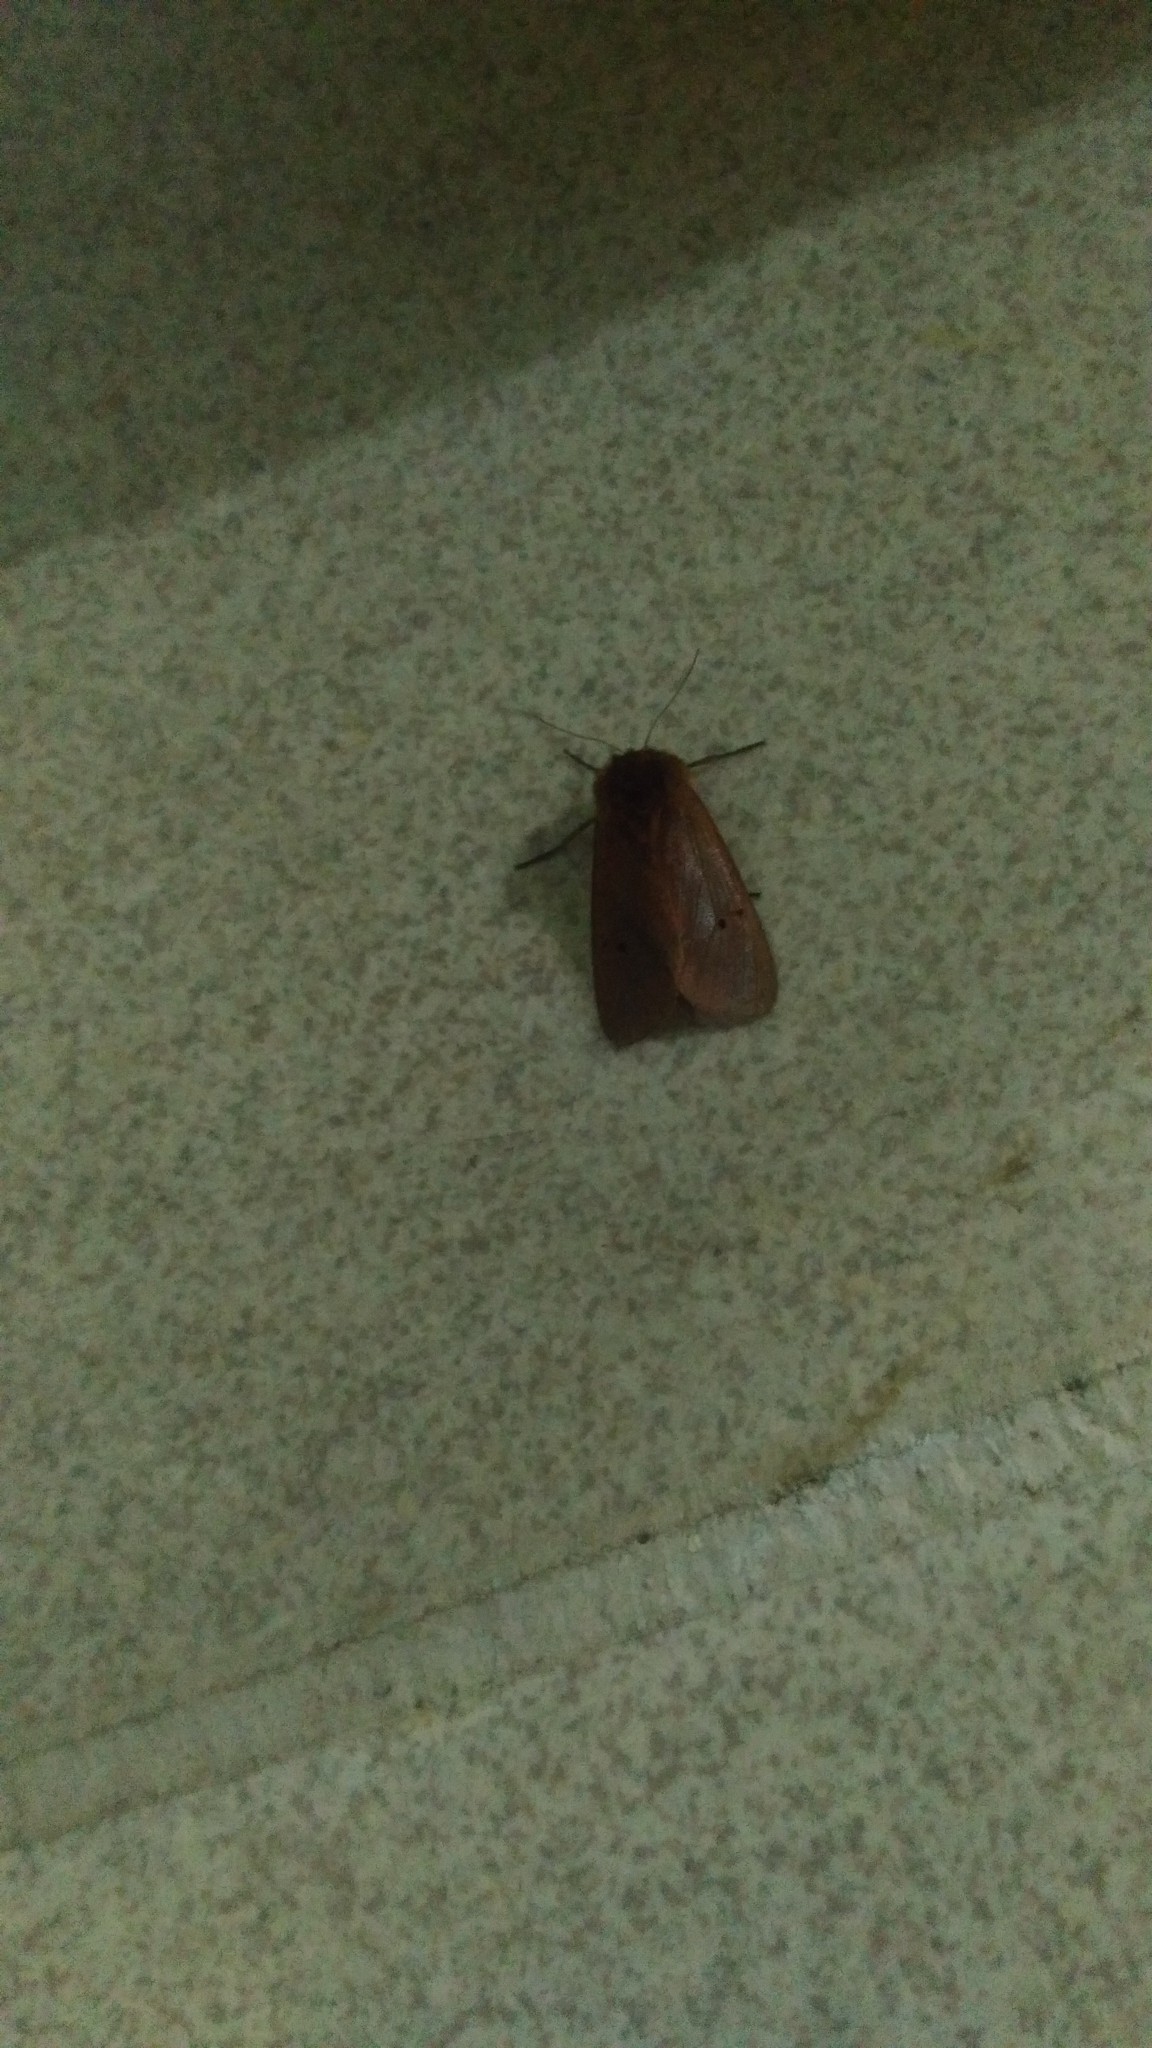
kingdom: Animalia
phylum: Arthropoda
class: Insecta
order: Lepidoptera
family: Erebidae
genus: Phragmatobia
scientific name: Phragmatobia fuliginosa
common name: Ruby tiger
